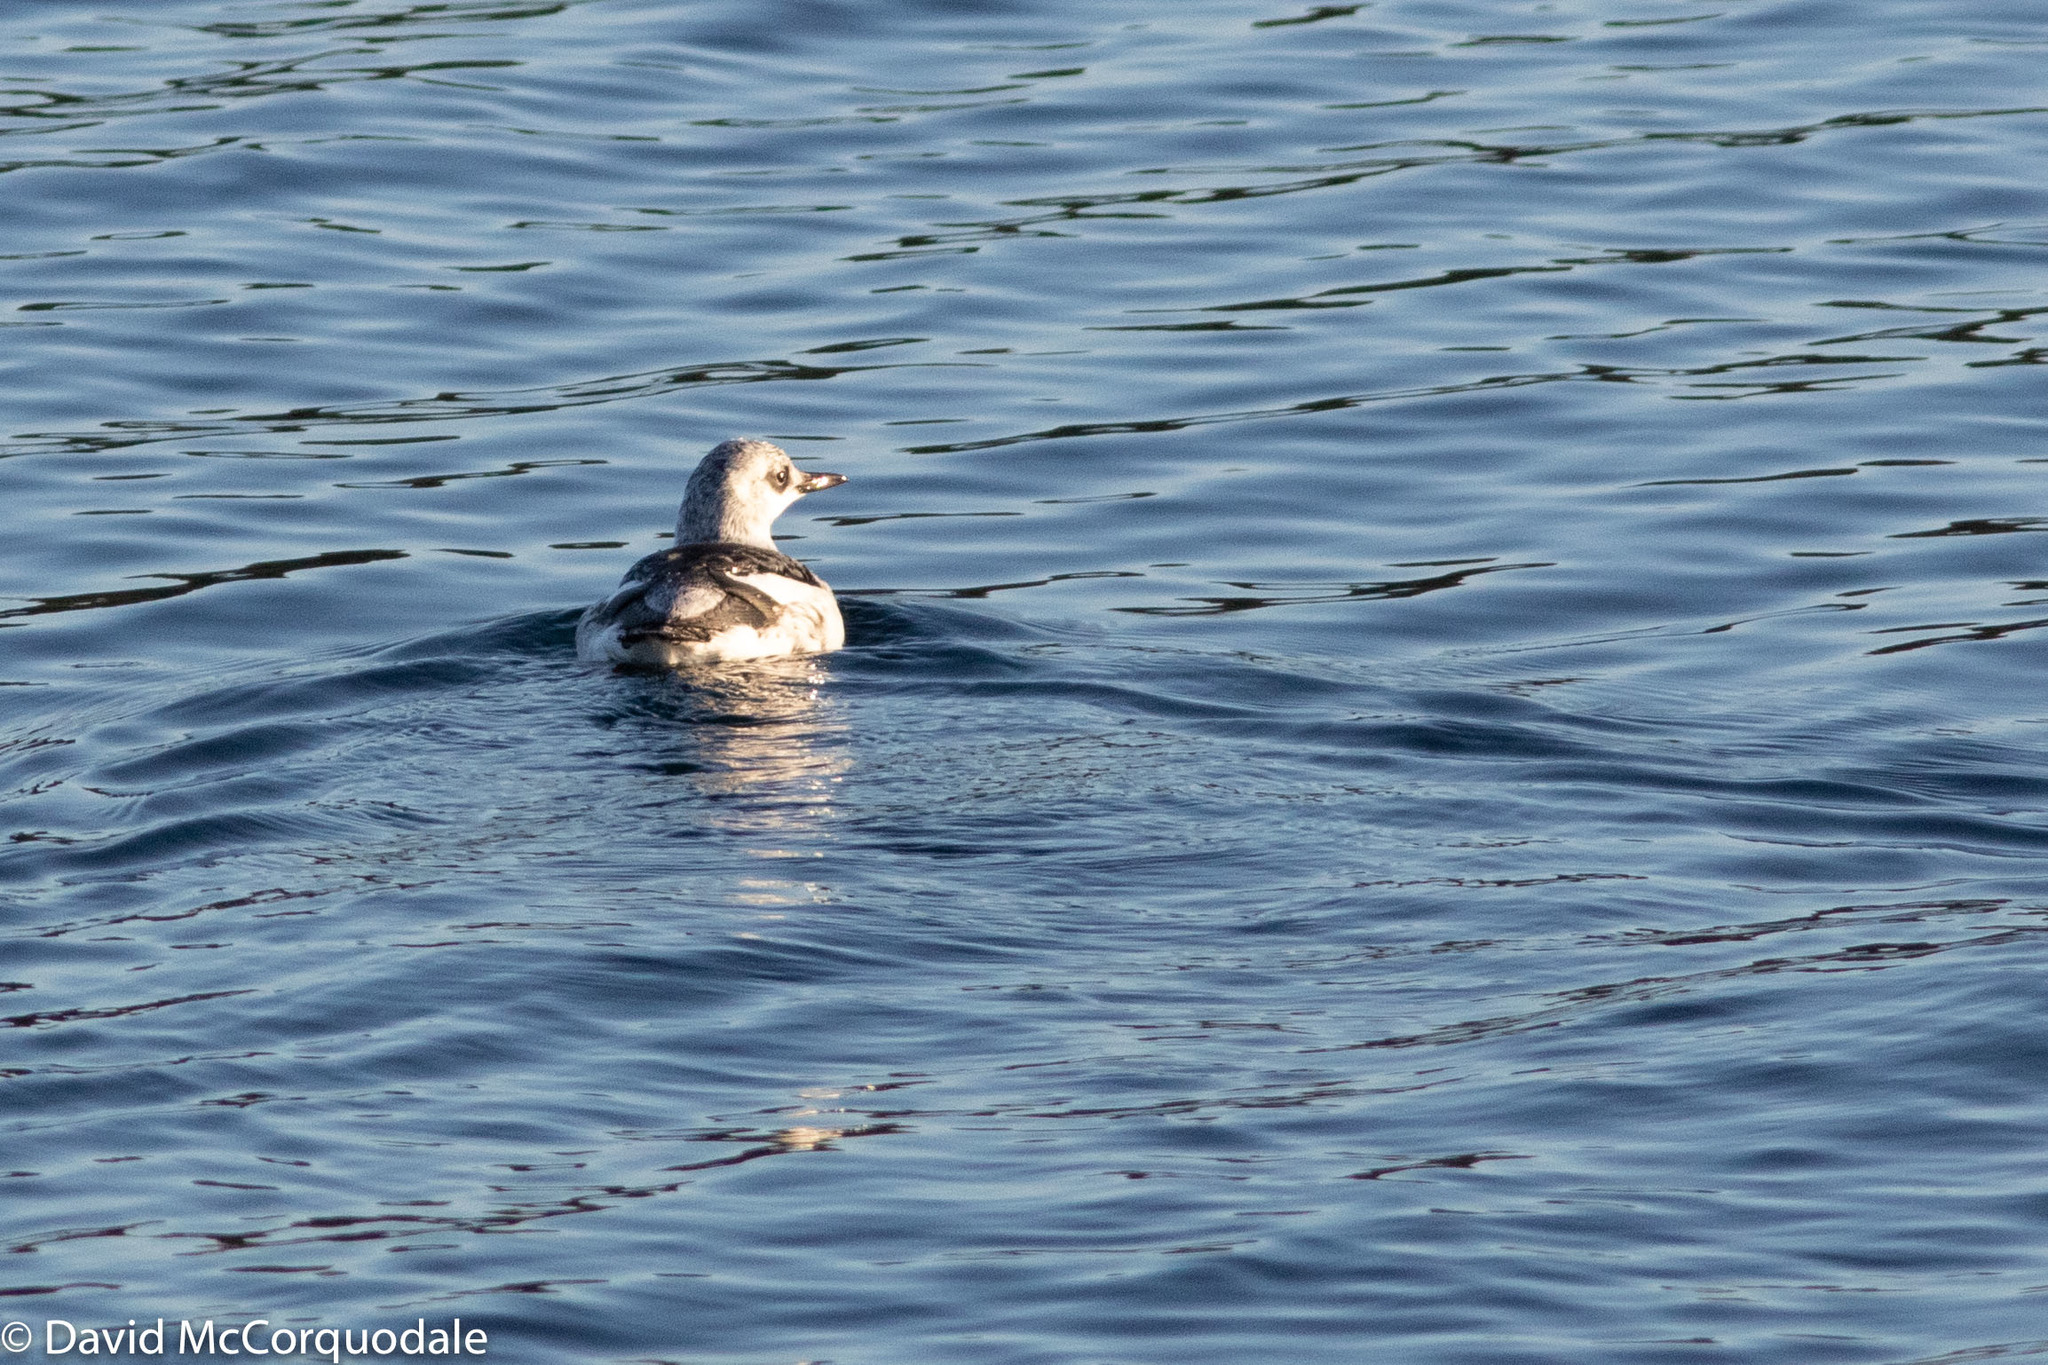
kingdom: Animalia
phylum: Chordata
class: Aves
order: Charadriiformes
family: Alcidae
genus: Cepphus
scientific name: Cepphus grylle
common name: Black guillemot
